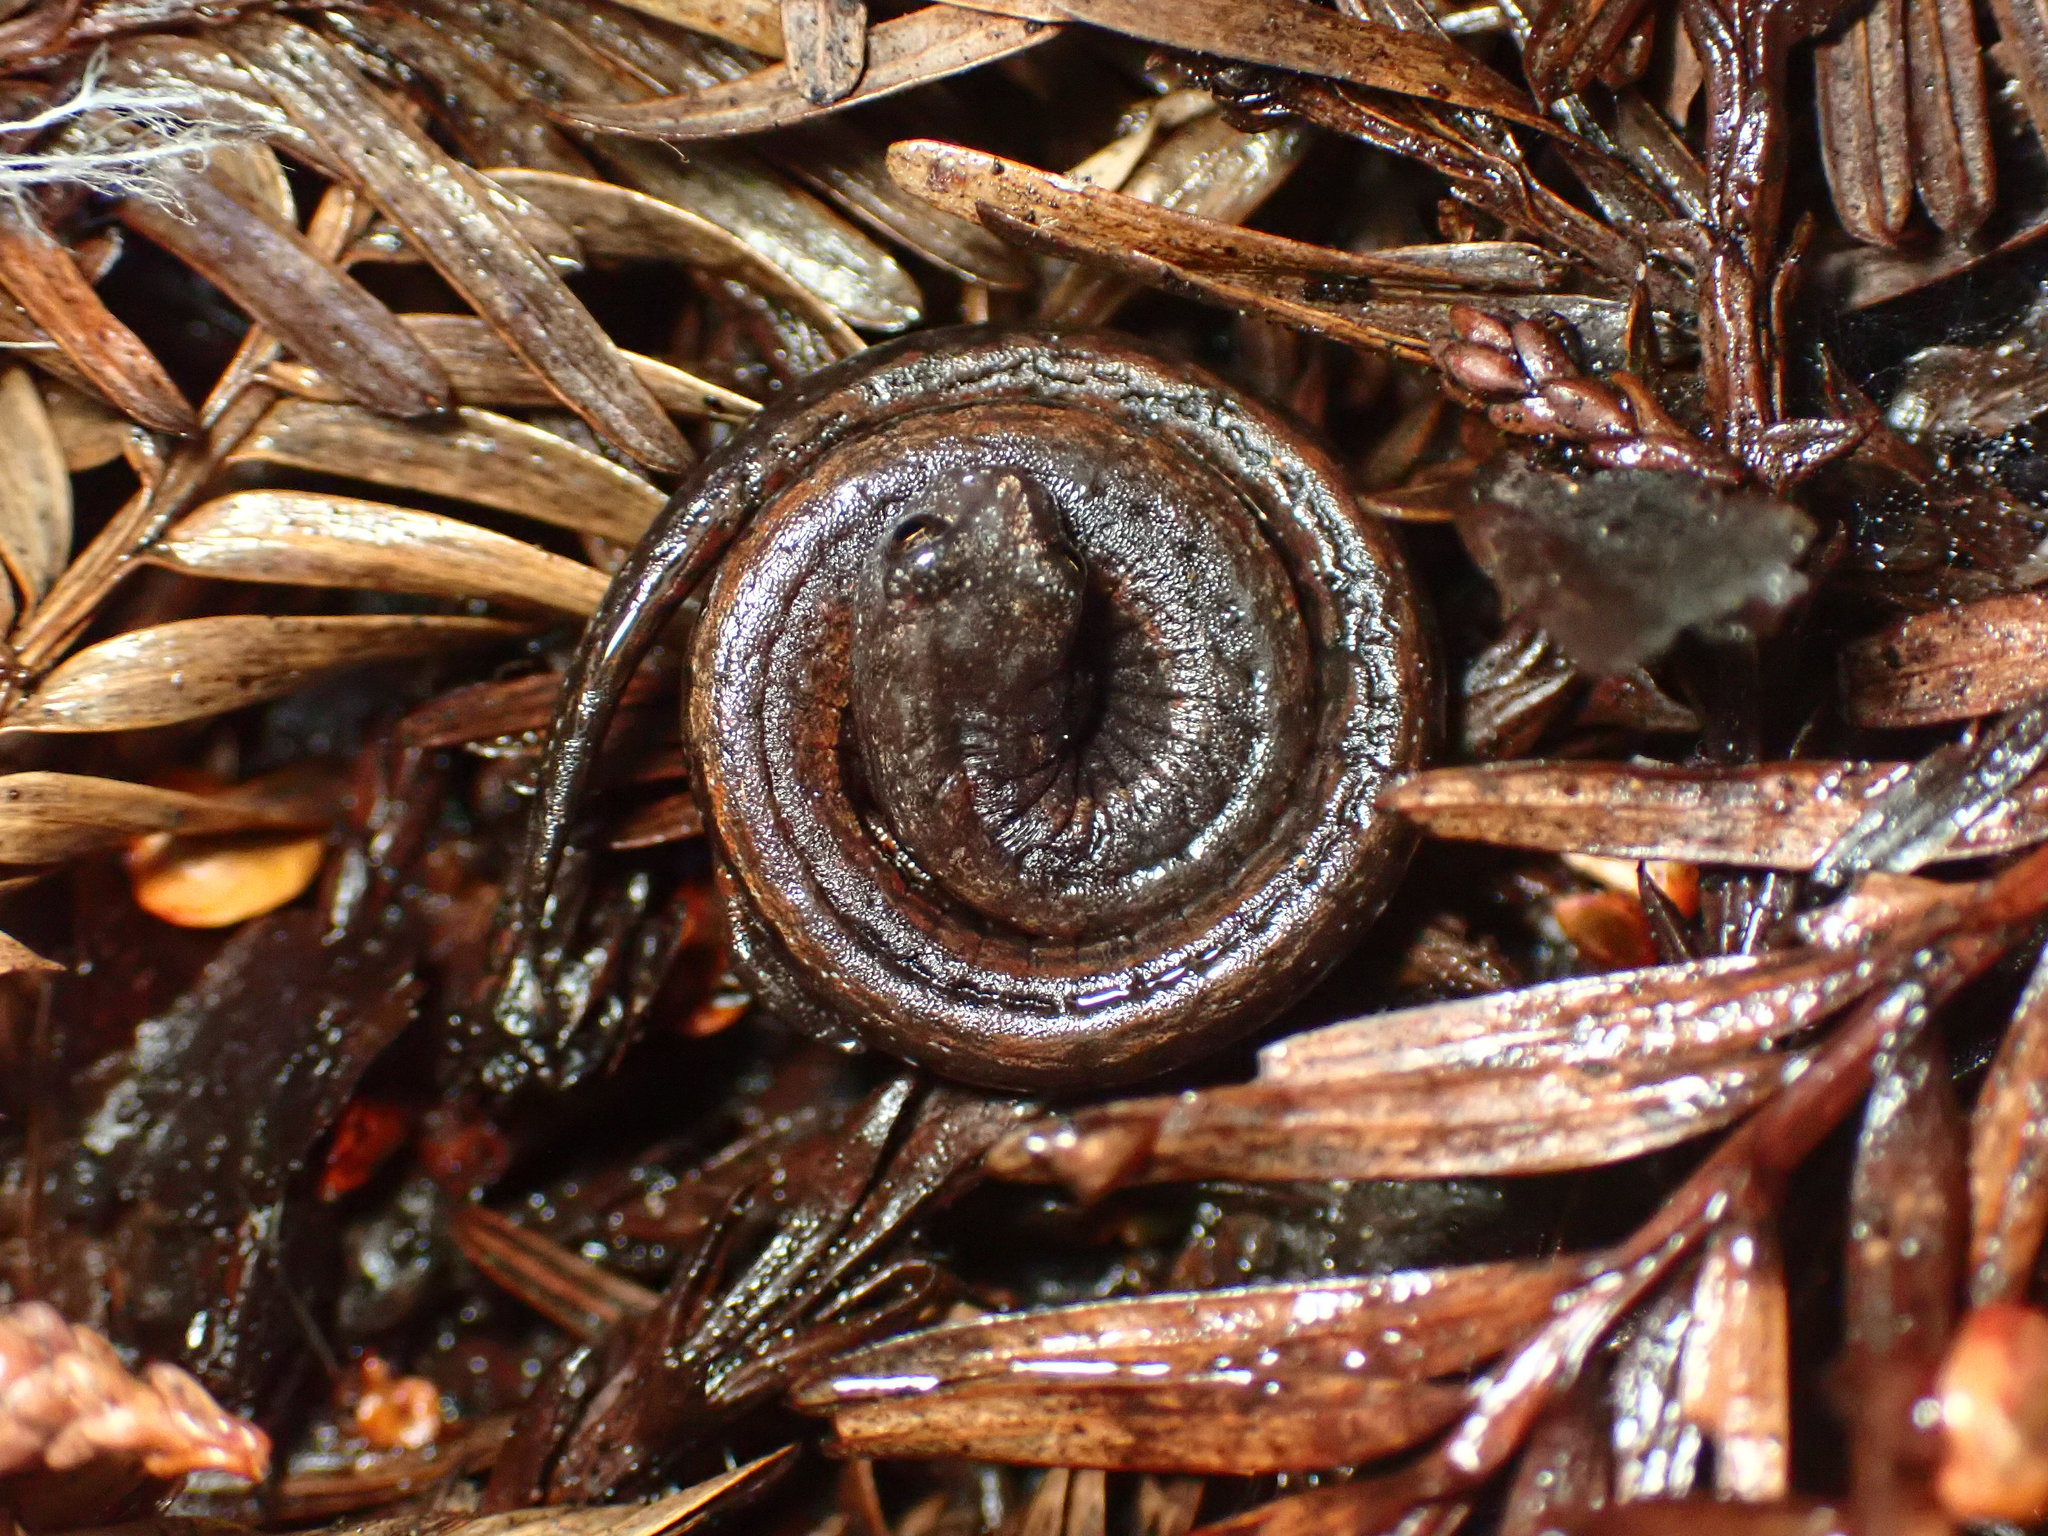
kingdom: Animalia
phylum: Chordata
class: Amphibia
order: Caudata
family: Plethodontidae
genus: Batrachoseps
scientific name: Batrachoseps attenuatus
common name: California slender salamander
